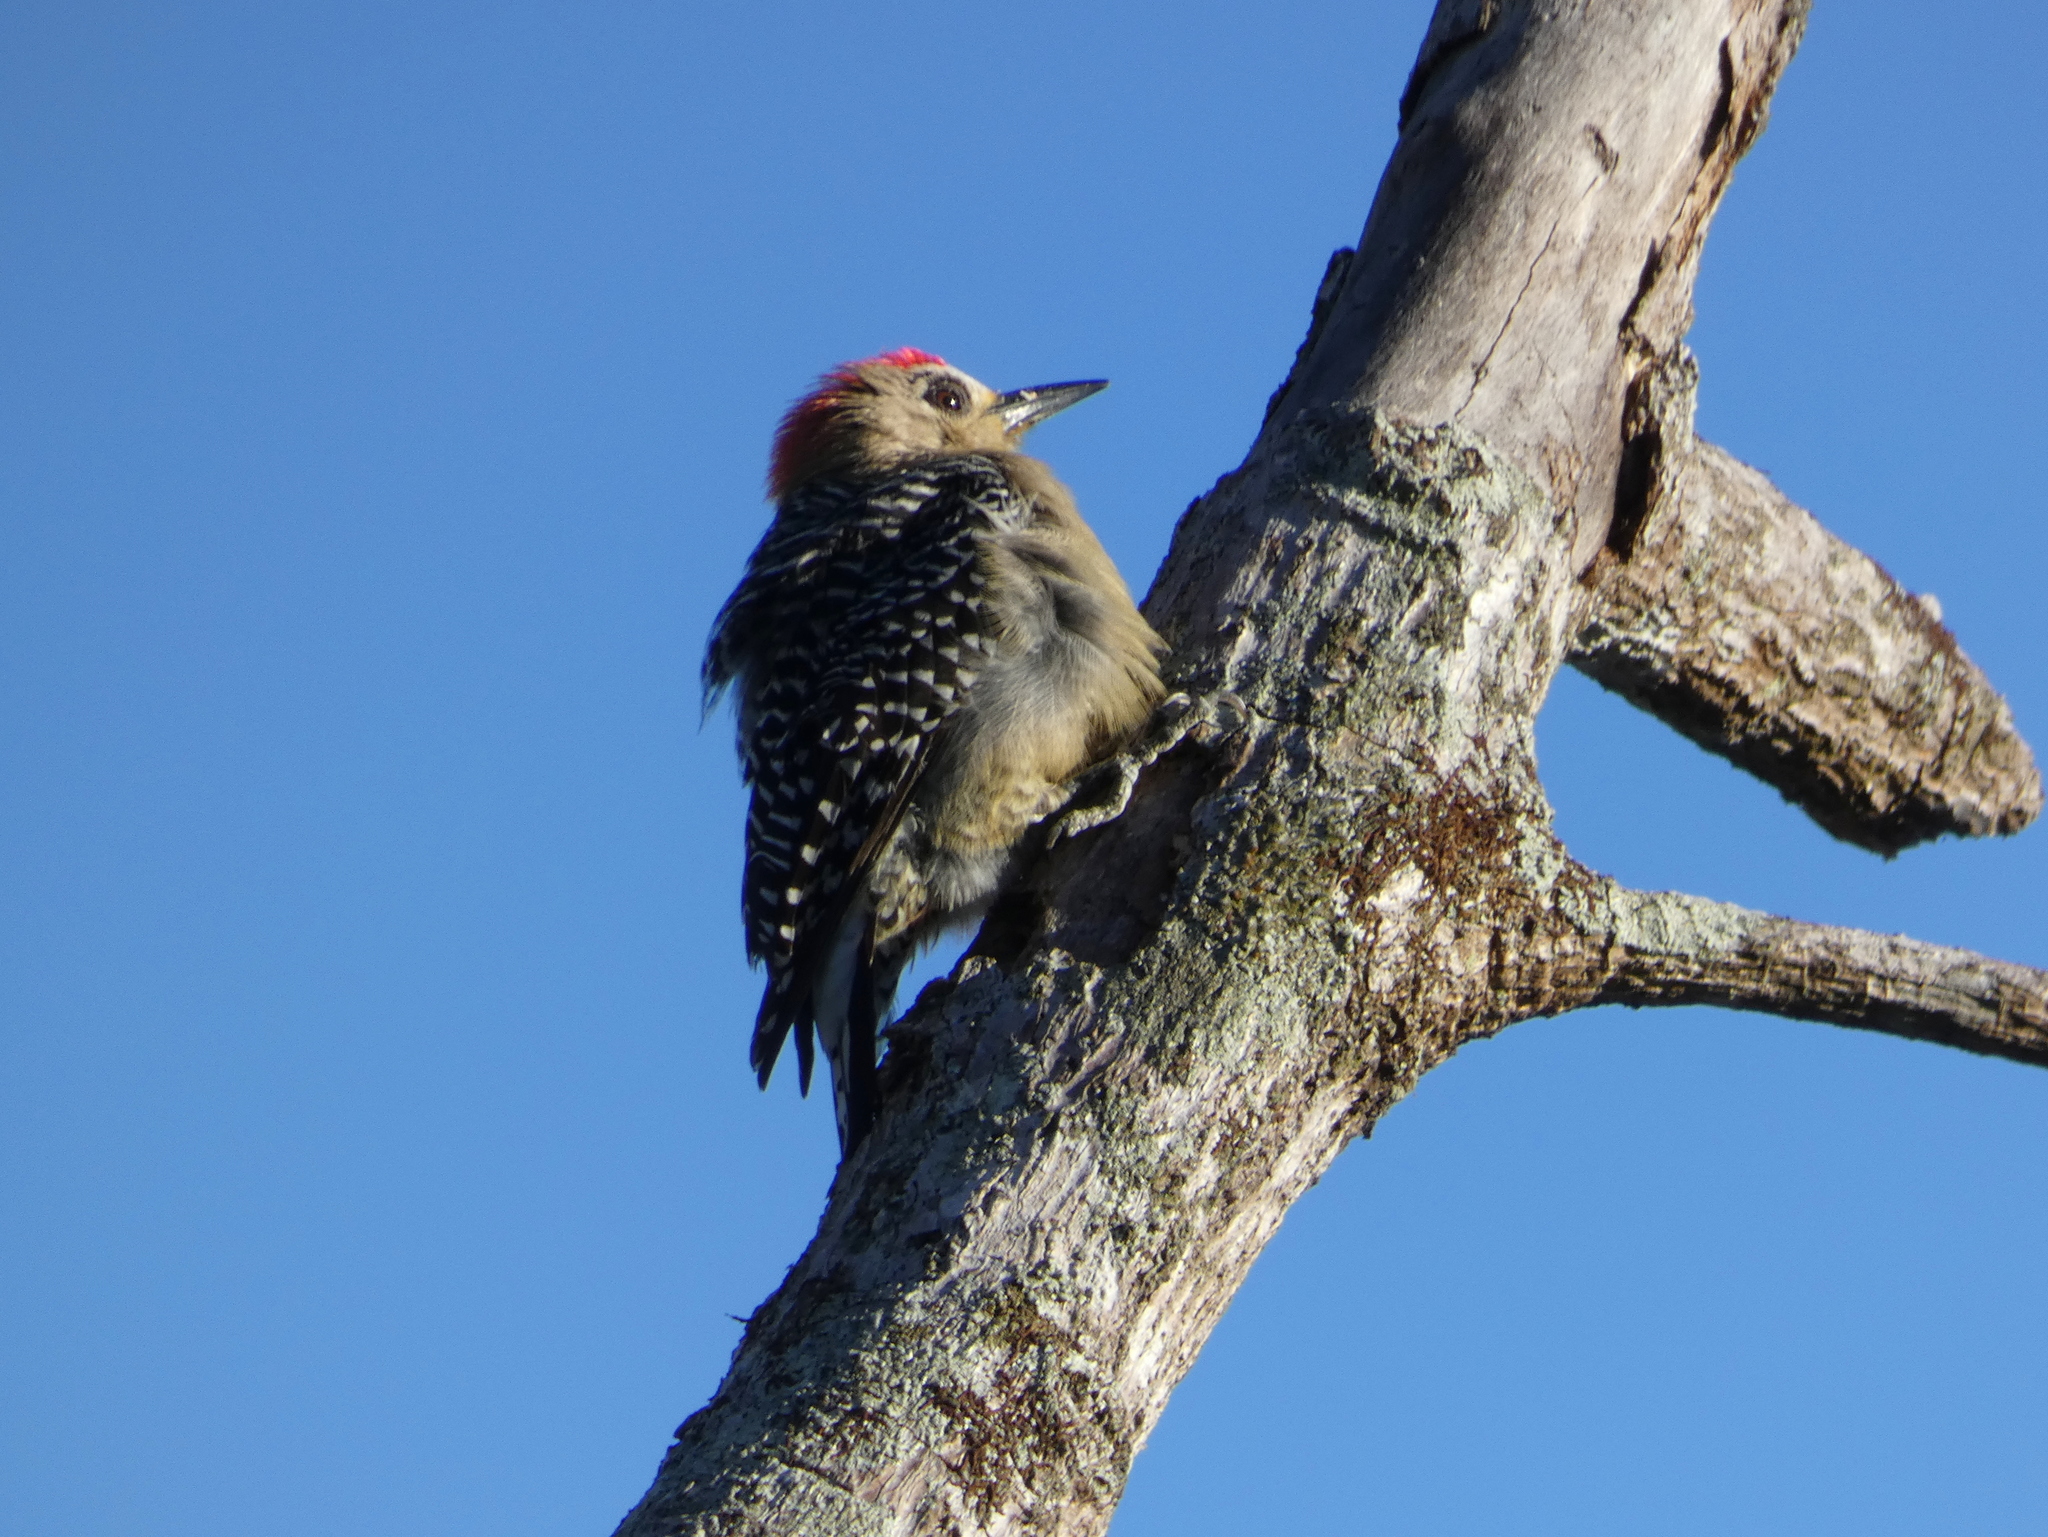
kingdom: Animalia
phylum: Chordata
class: Aves
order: Piciformes
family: Picidae
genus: Melanerpes
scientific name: Melanerpes rubricapillus
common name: Red-crowned woodpecker
